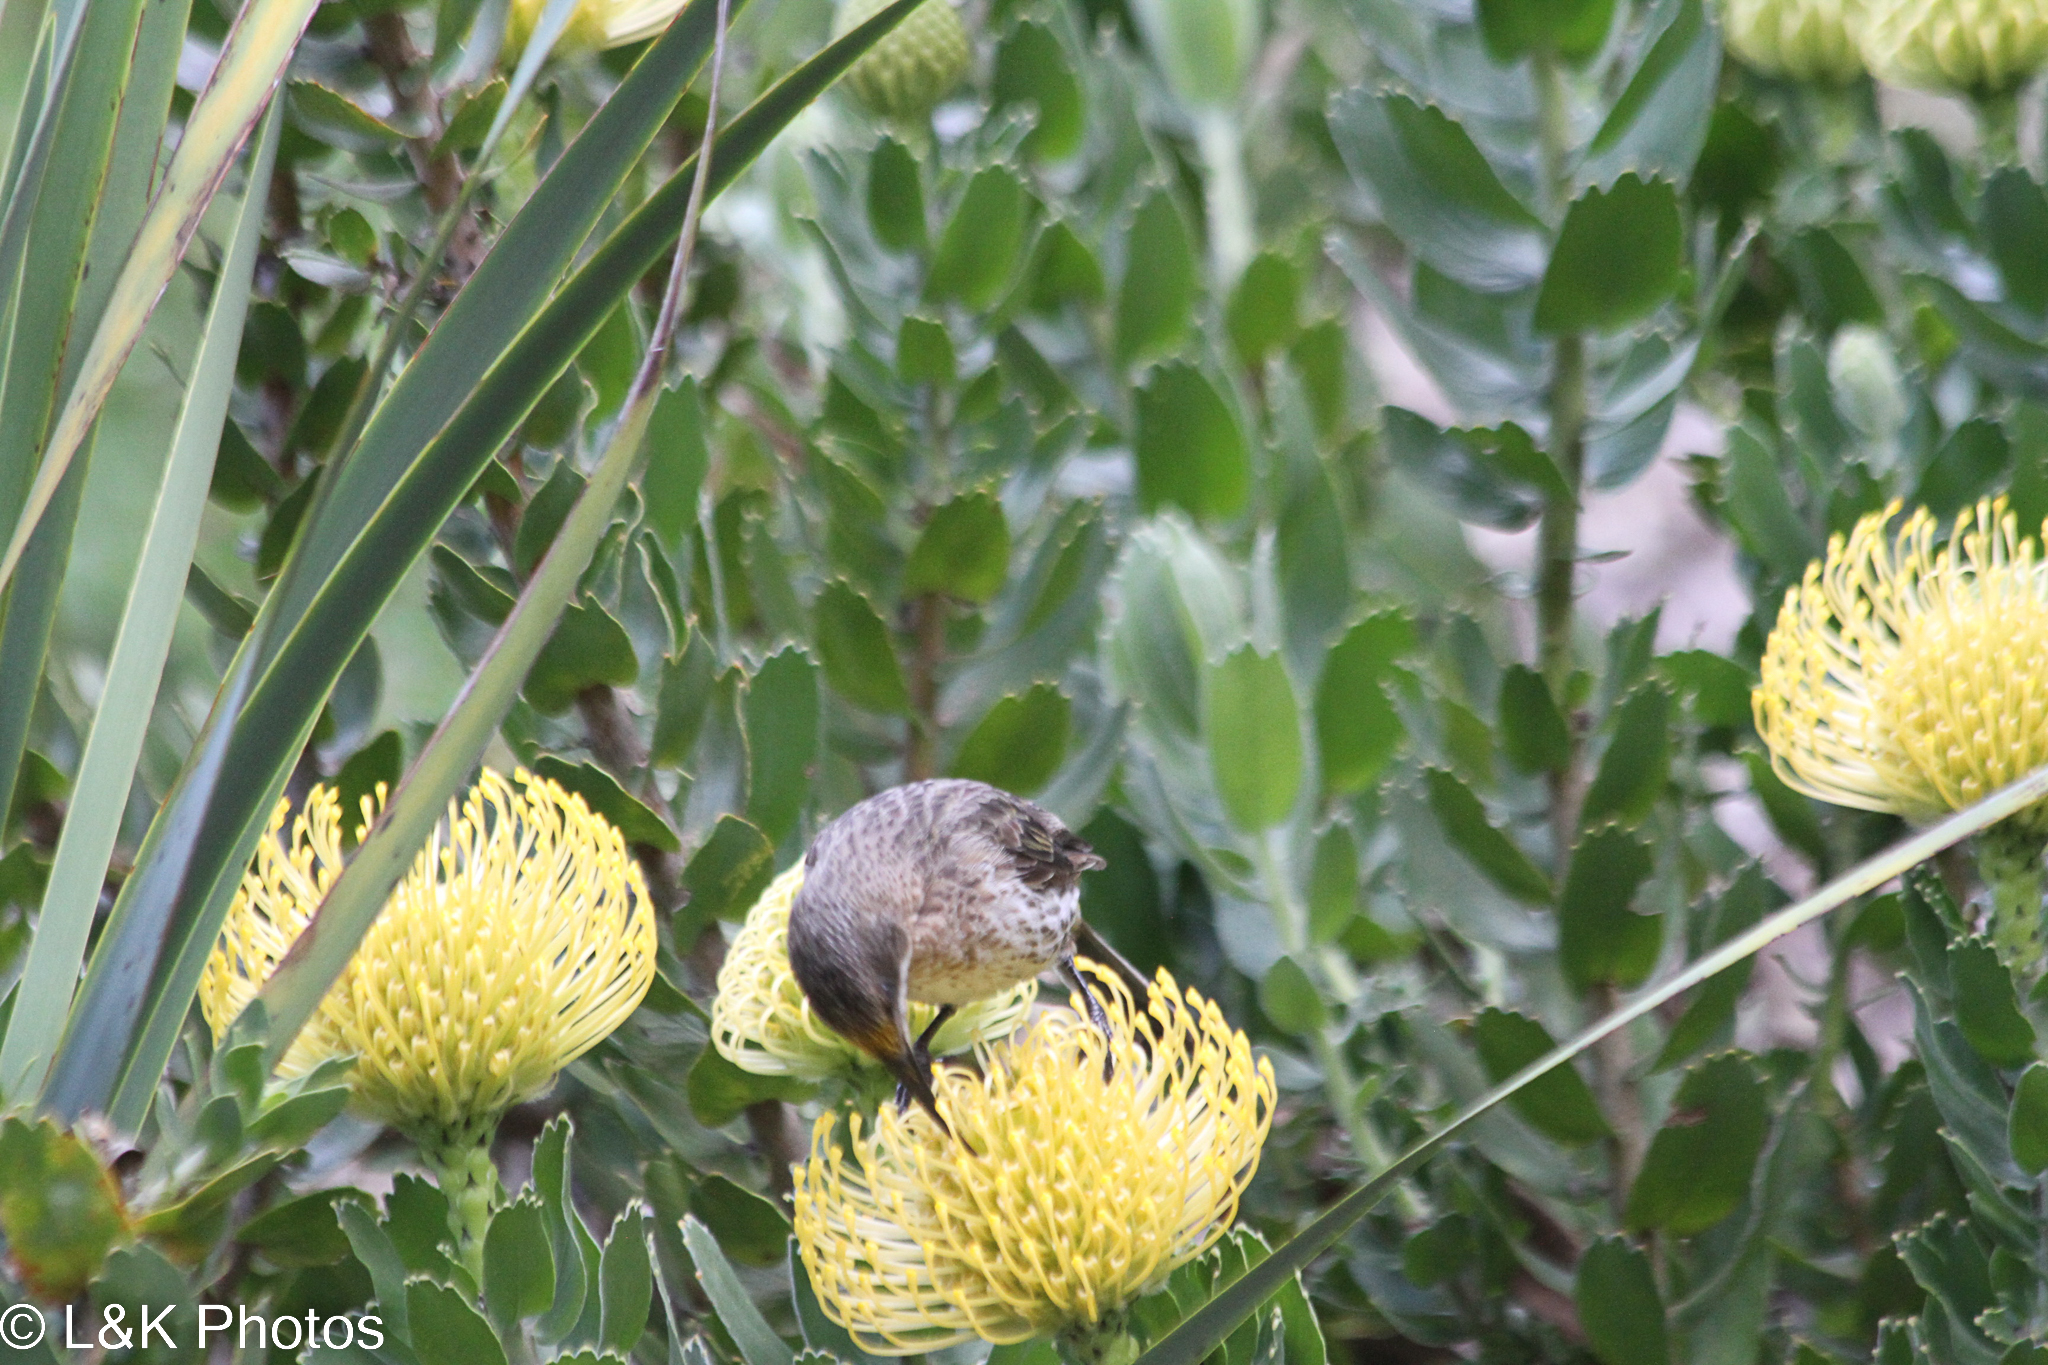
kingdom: Animalia
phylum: Chordata
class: Aves
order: Passeriformes
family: Promeropidae
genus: Promerops
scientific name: Promerops cafer
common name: Cape sugarbird
